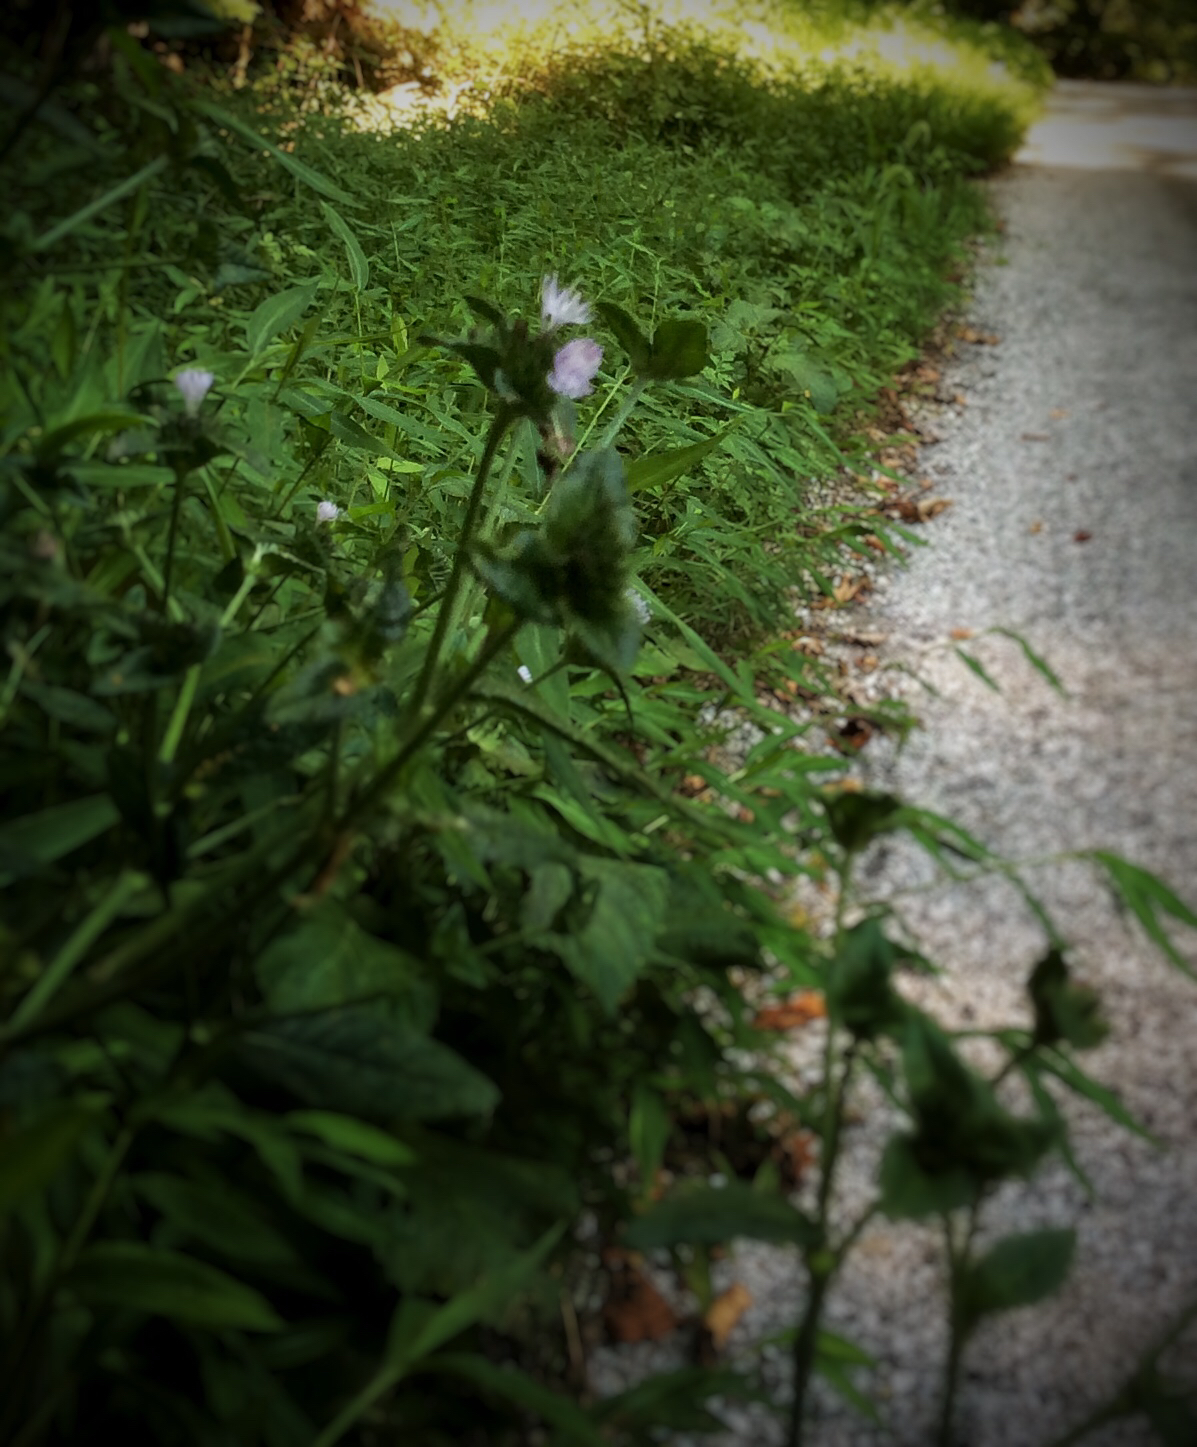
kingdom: Plantae
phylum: Tracheophyta
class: Magnoliopsida
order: Asterales
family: Asteraceae
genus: Elephantopus
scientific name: Elephantopus carolinianus
